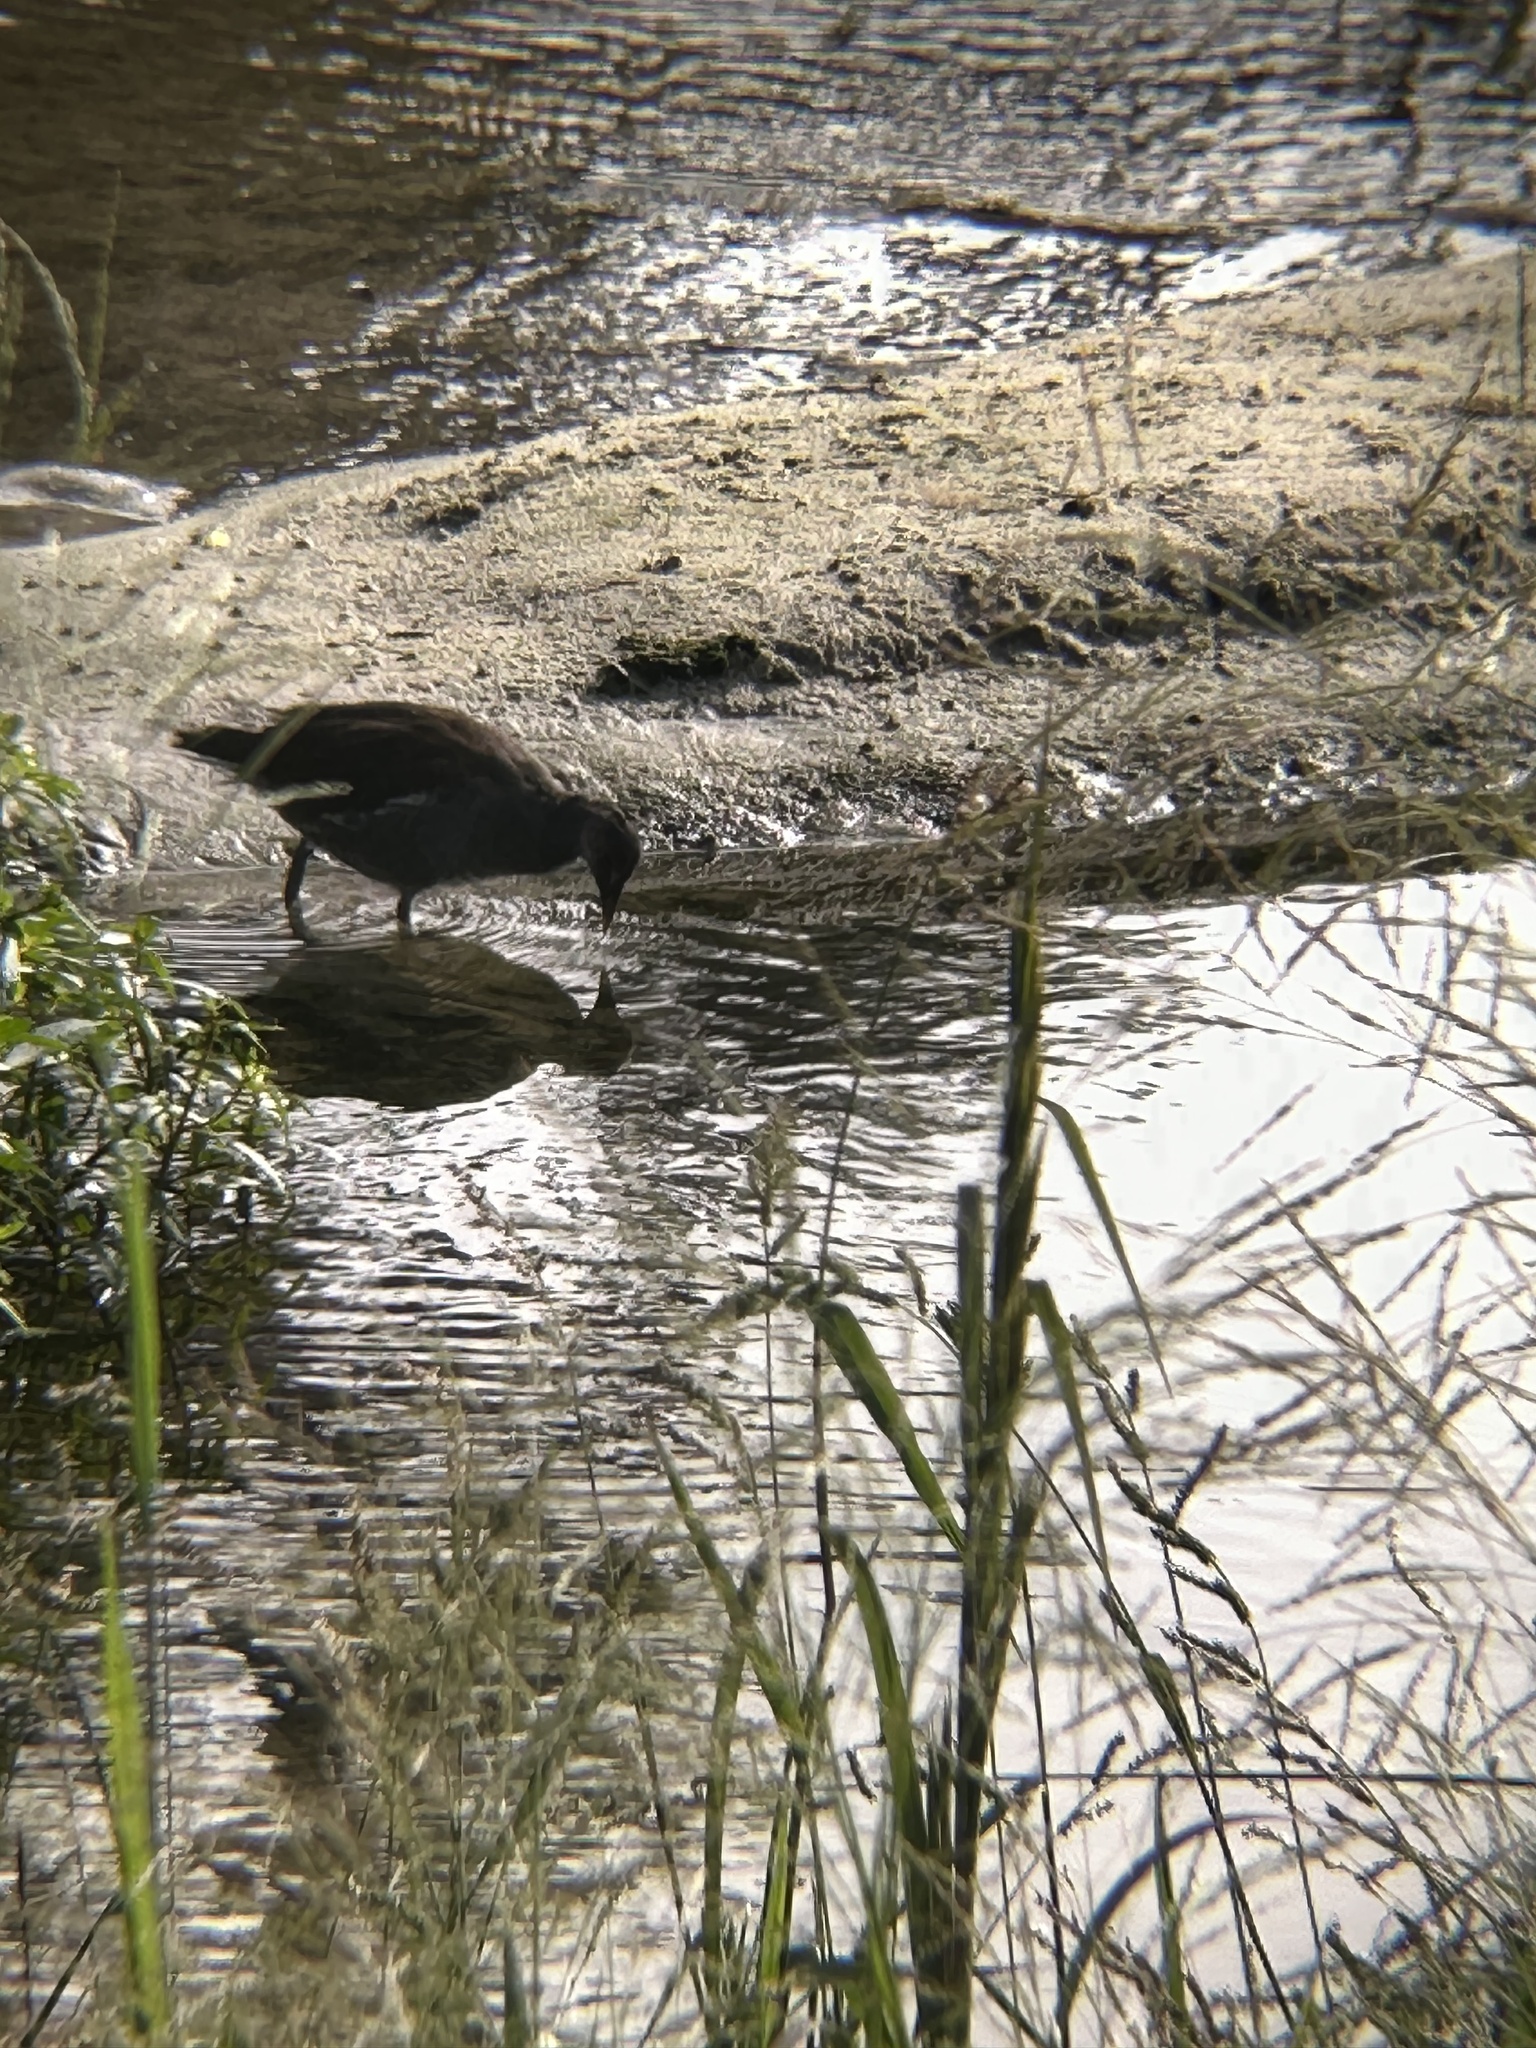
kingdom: Animalia
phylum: Chordata
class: Aves
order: Gruiformes
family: Rallidae
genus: Gallinula
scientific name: Gallinula chloropus
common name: Common moorhen
